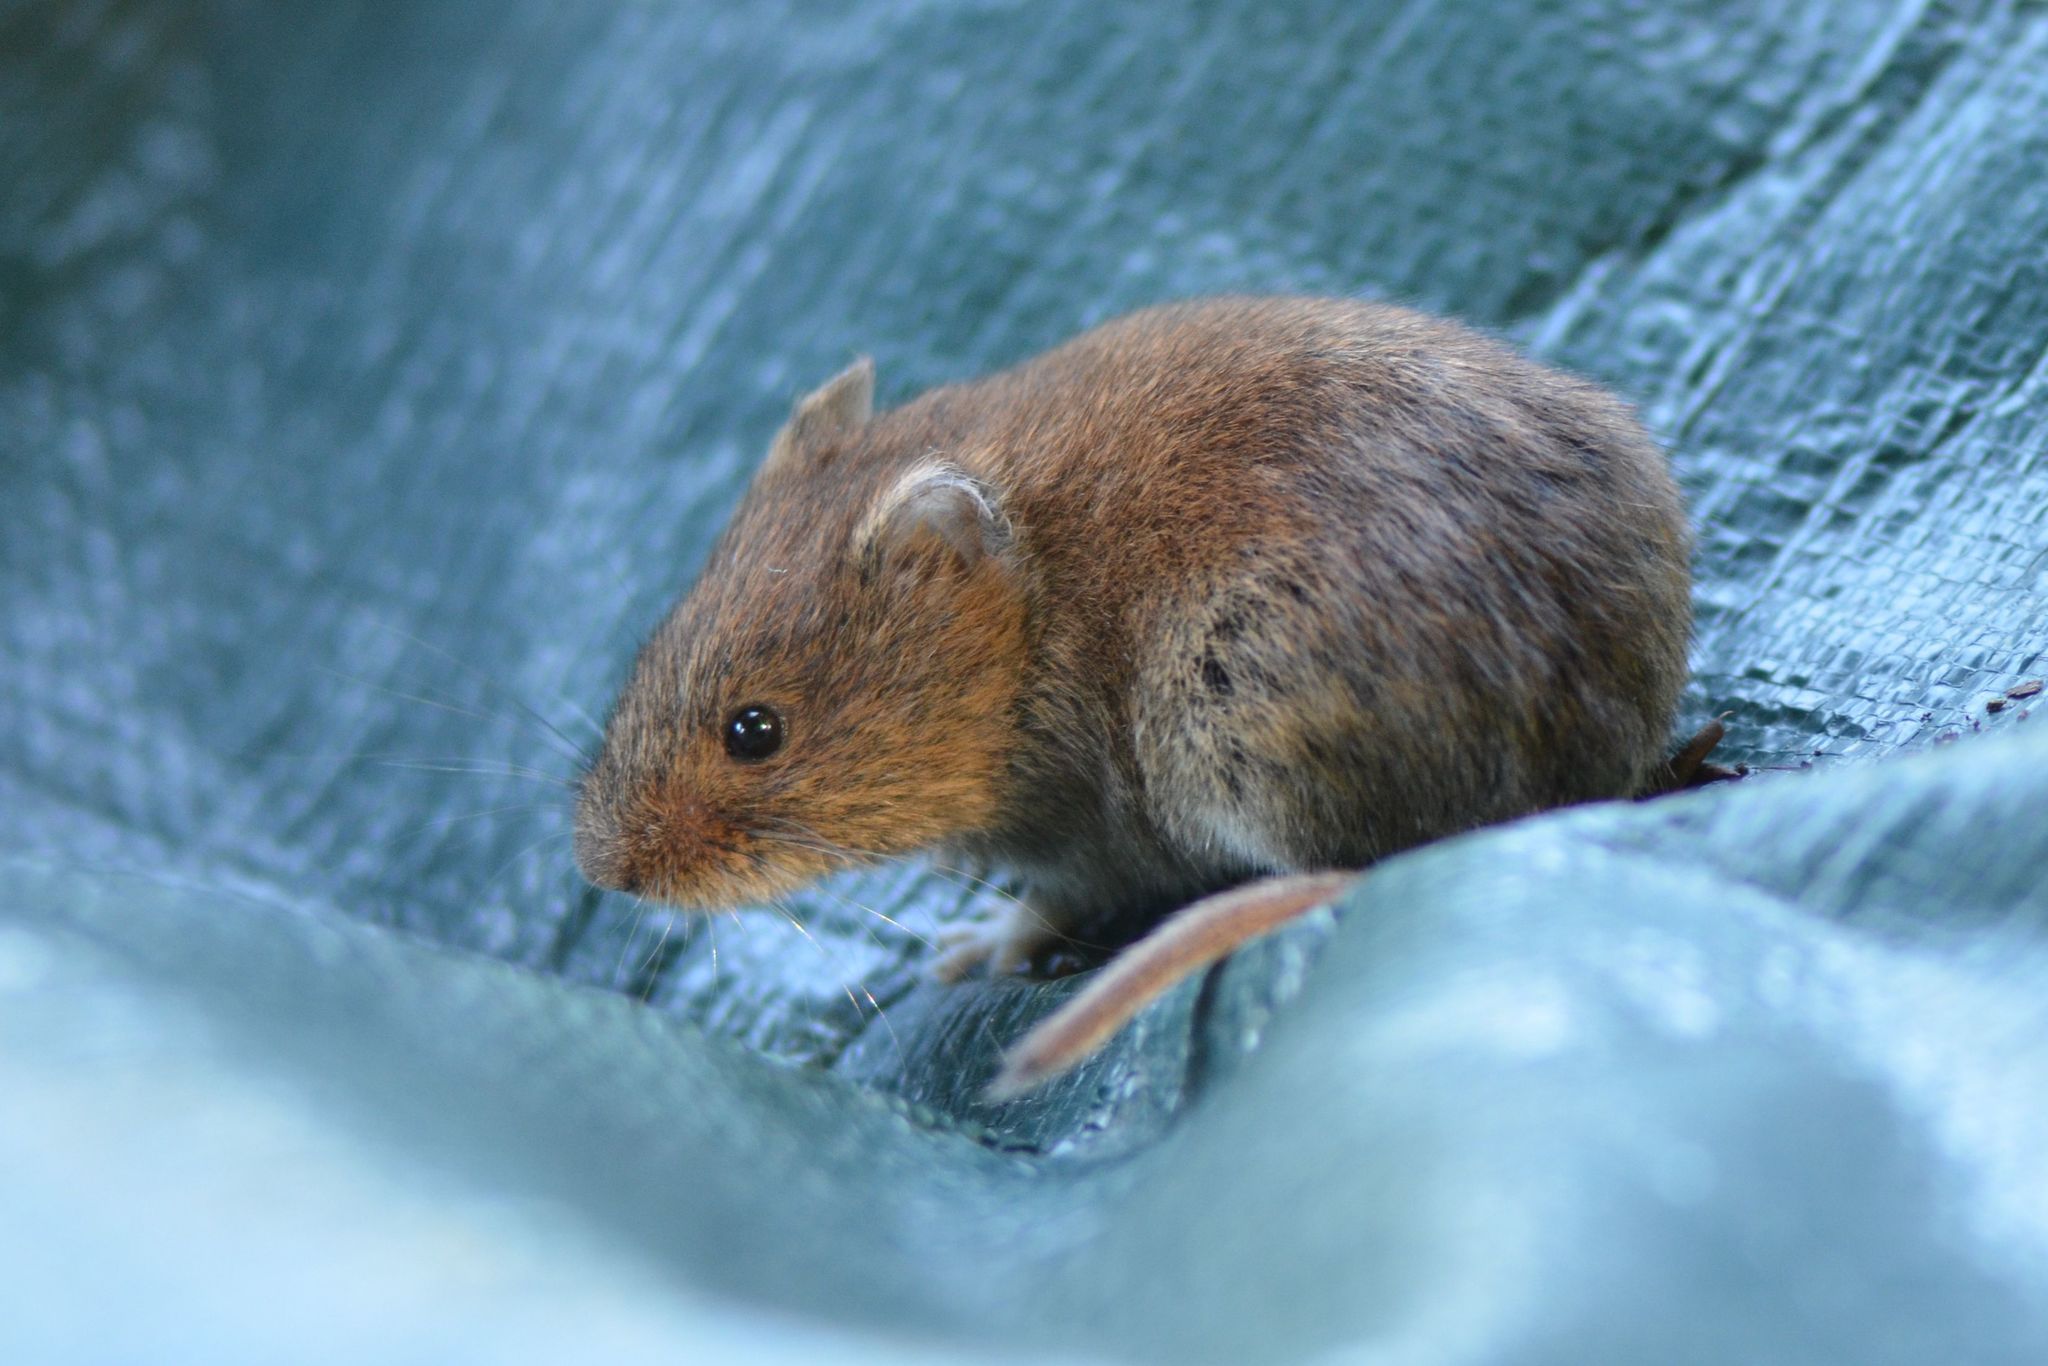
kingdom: Animalia
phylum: Chordata
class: Mammalia
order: Rodentia
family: Cricetidae
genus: Myodes
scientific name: Myodes glareolus
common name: Bank vole
